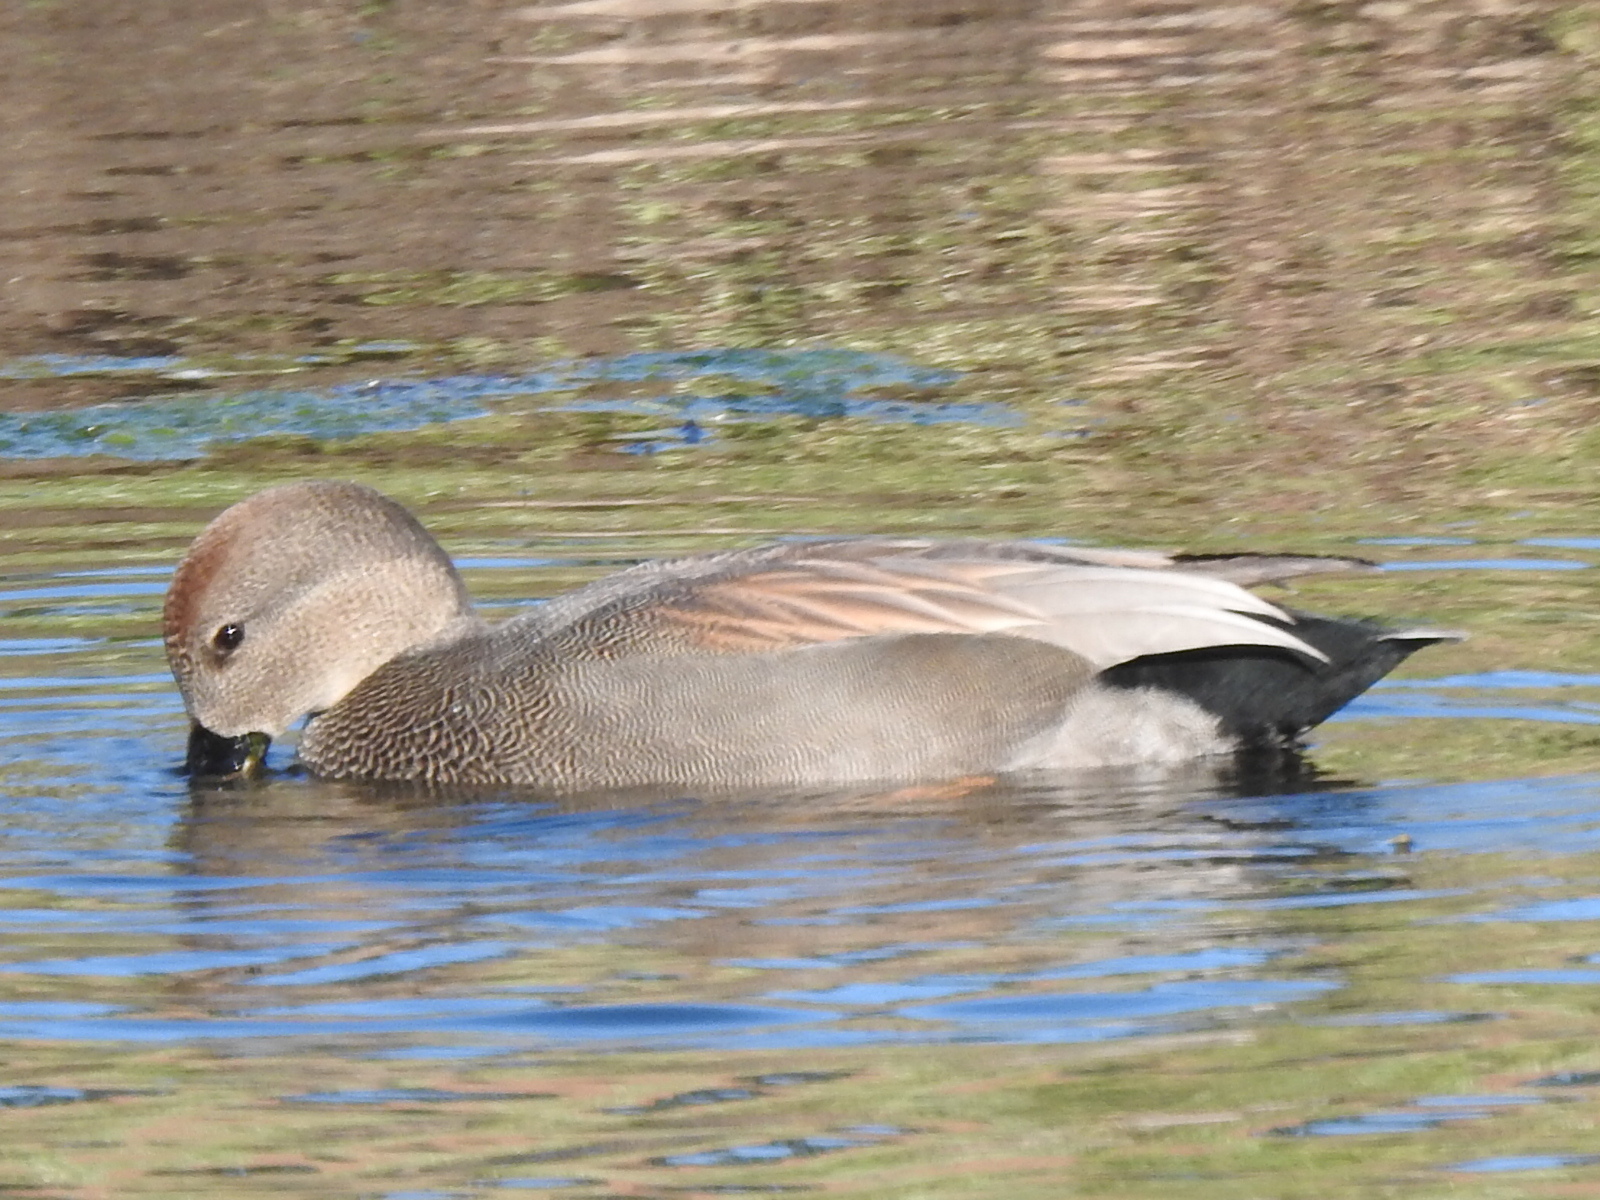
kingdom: Animalia
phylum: Chordata
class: Aves
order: Anseriformes
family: Anatidae
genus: Mareca
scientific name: Mareca strepera
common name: Gadwall
